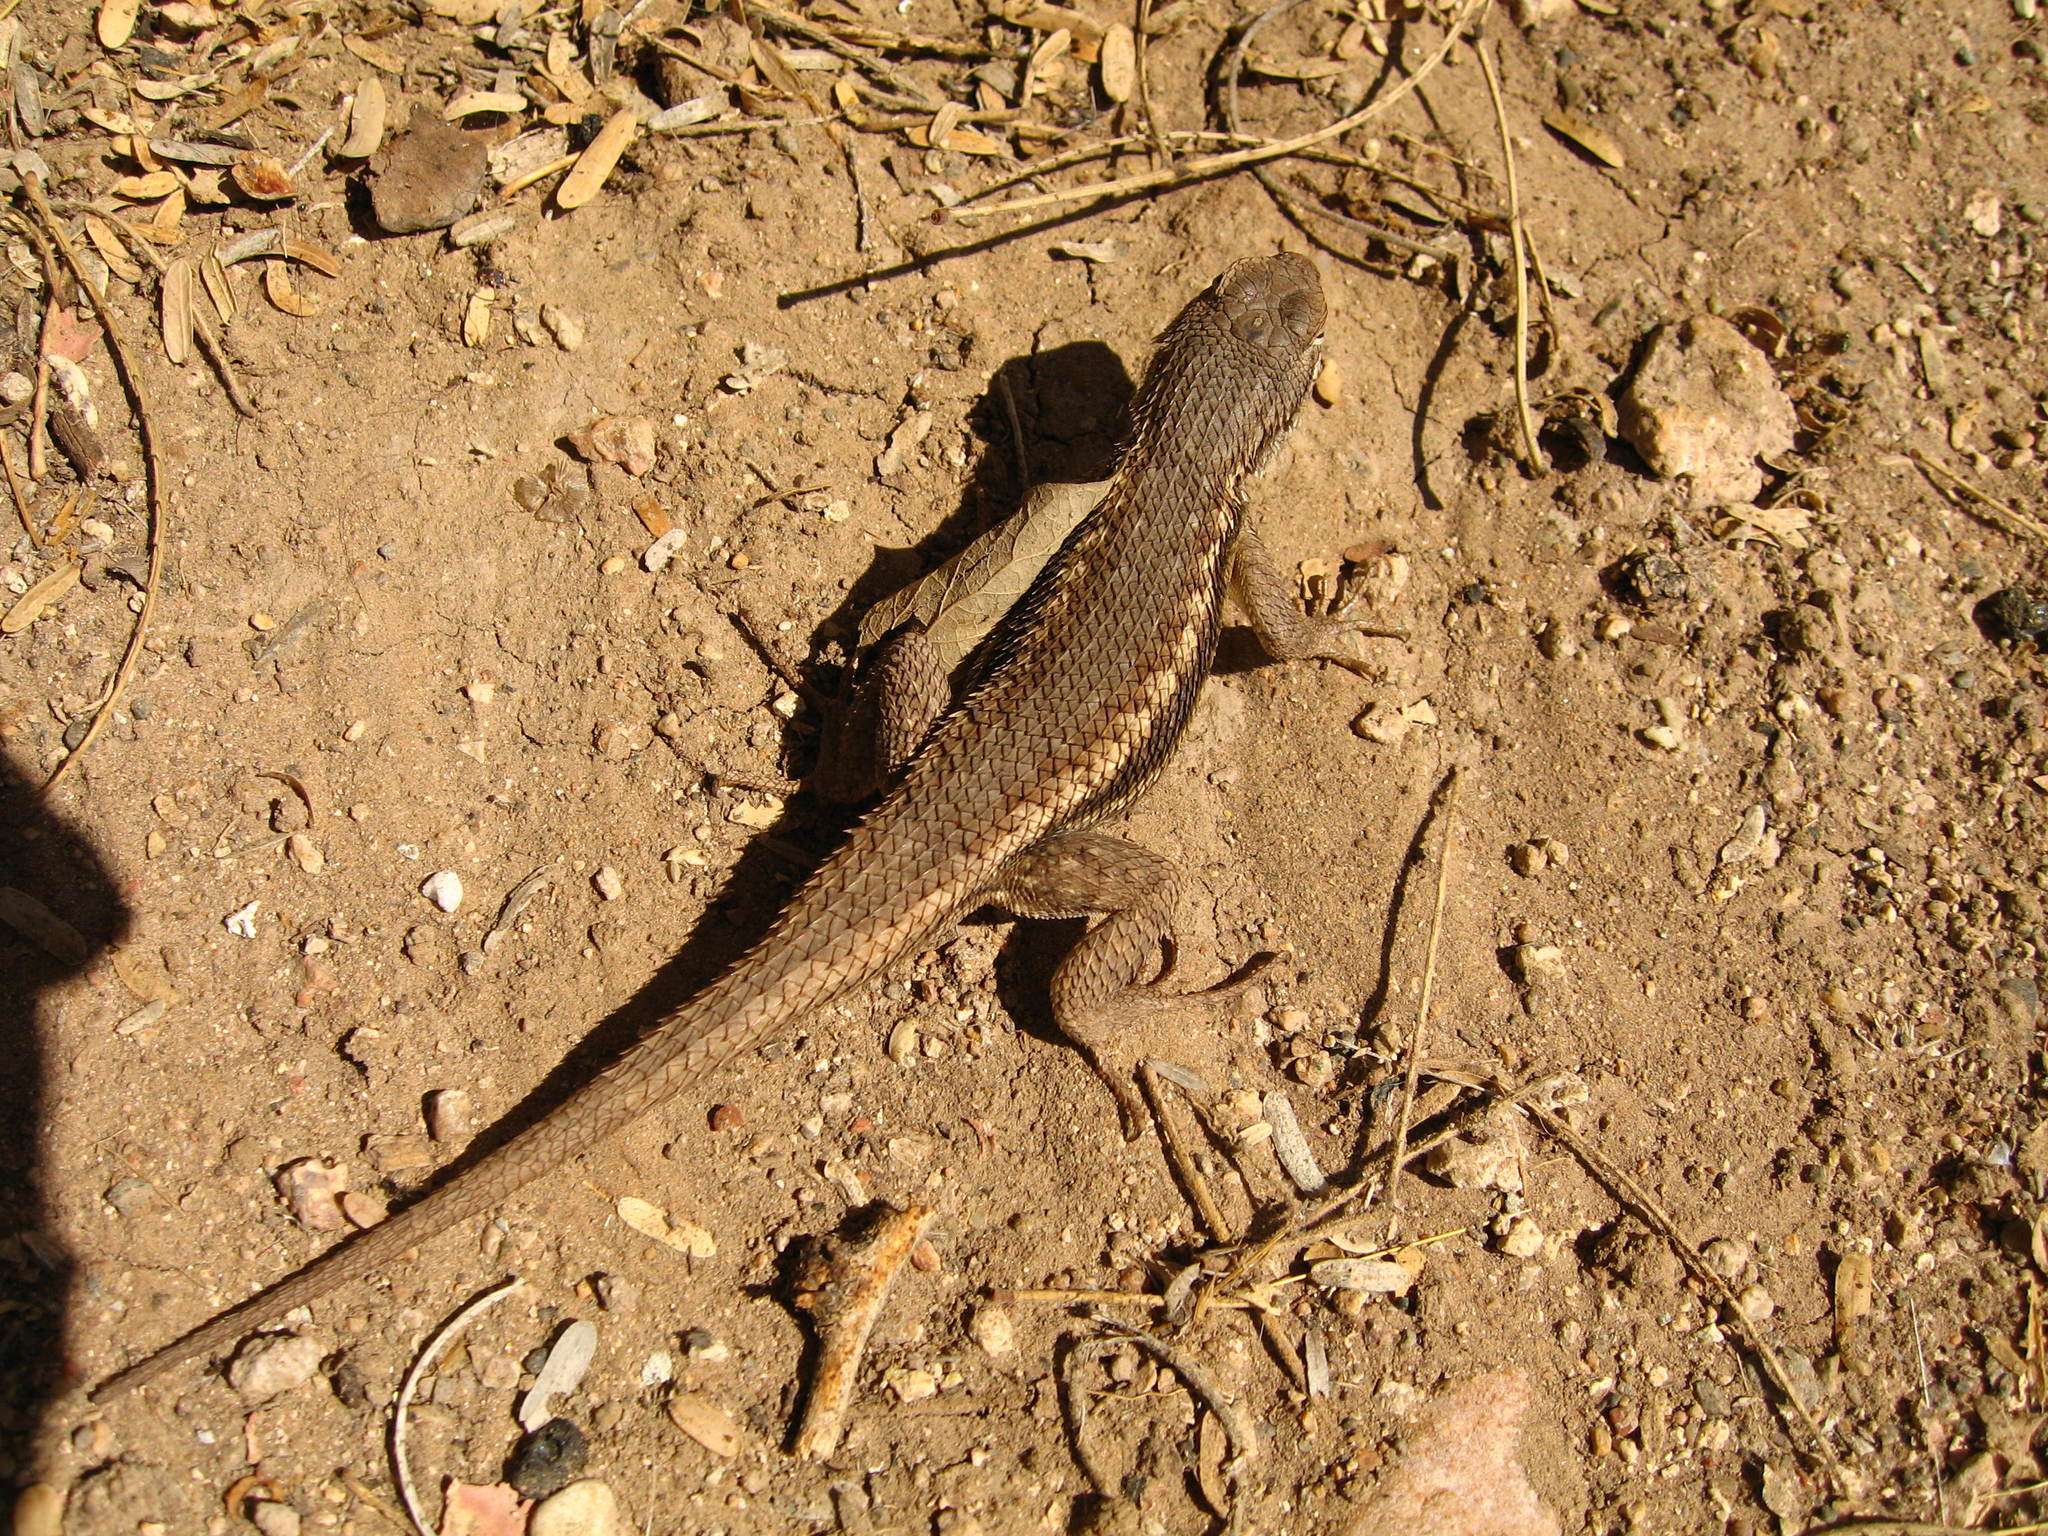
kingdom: Animalia
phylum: Chordata
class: Squamata
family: Phrynosomatidae
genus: Sceloporus
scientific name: Sceloporus tristichus
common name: Plateau fence lizard
